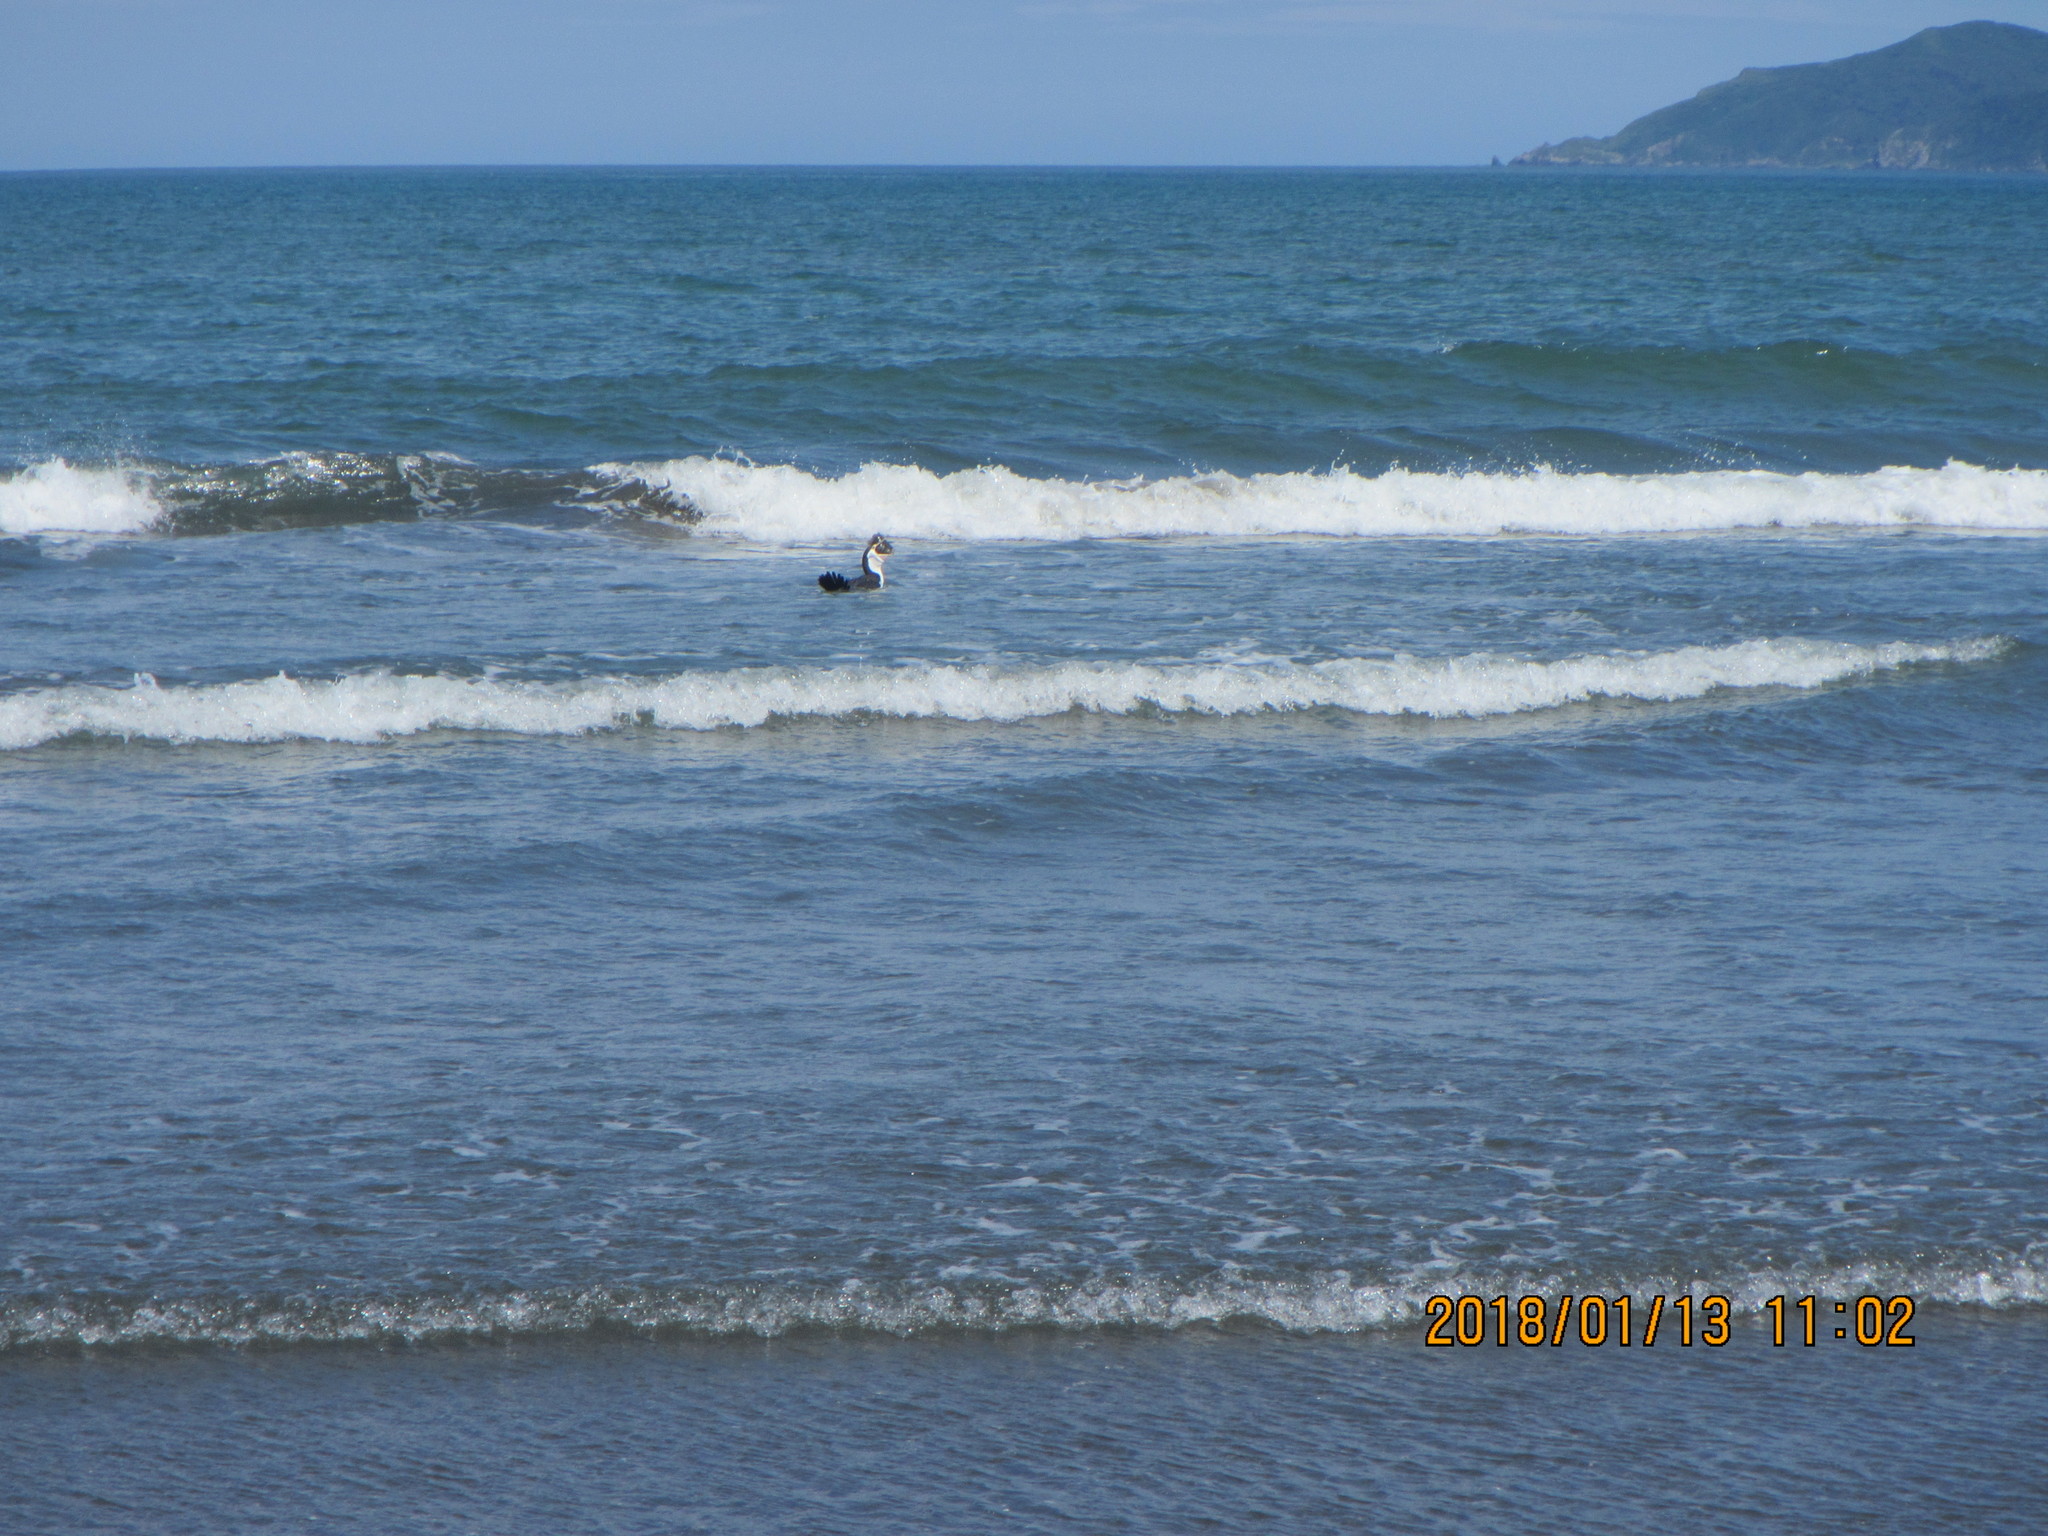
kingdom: Animalia
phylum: Chordata
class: Aves
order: Suliformes
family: Phalacrocoracidae
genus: Phalacrocorax
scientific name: Phalacrocorax varius
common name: Pied cormorant
